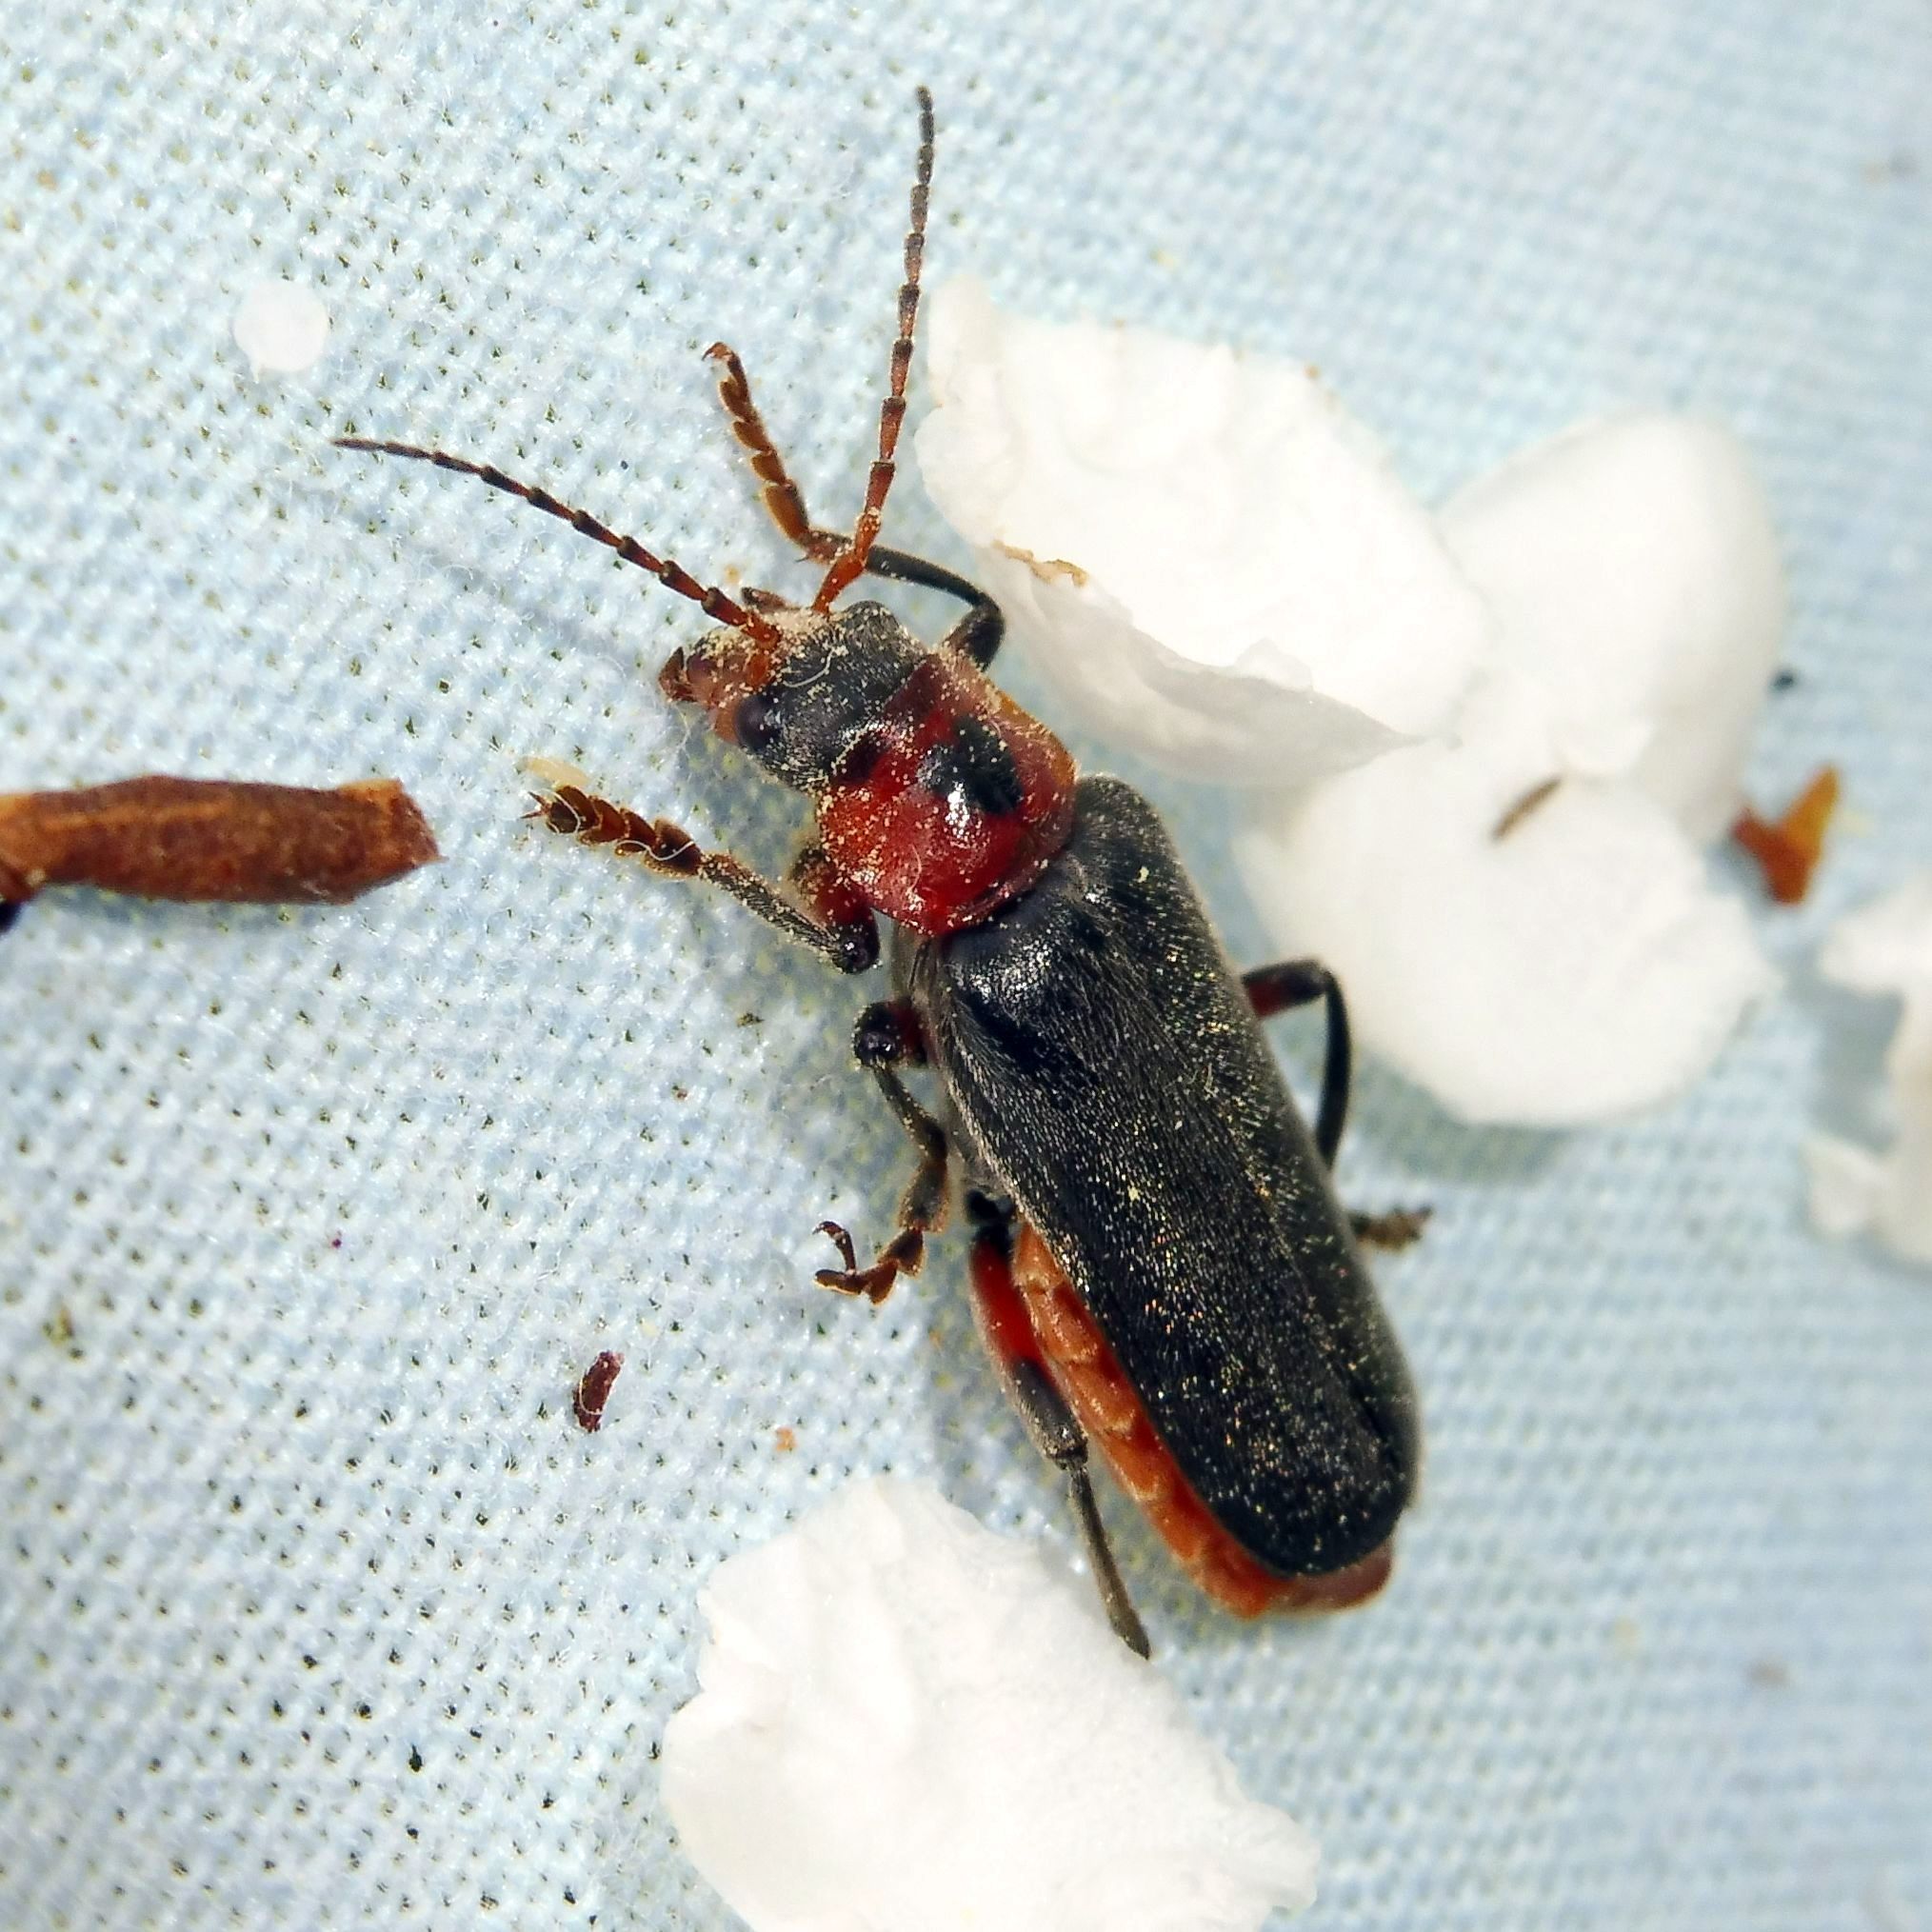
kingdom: Animalia
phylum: Arthropoda
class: Insecta
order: Coleoptera
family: Cantharidae
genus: Cantharis
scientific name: Cantharis rustica
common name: Soldier beetle
